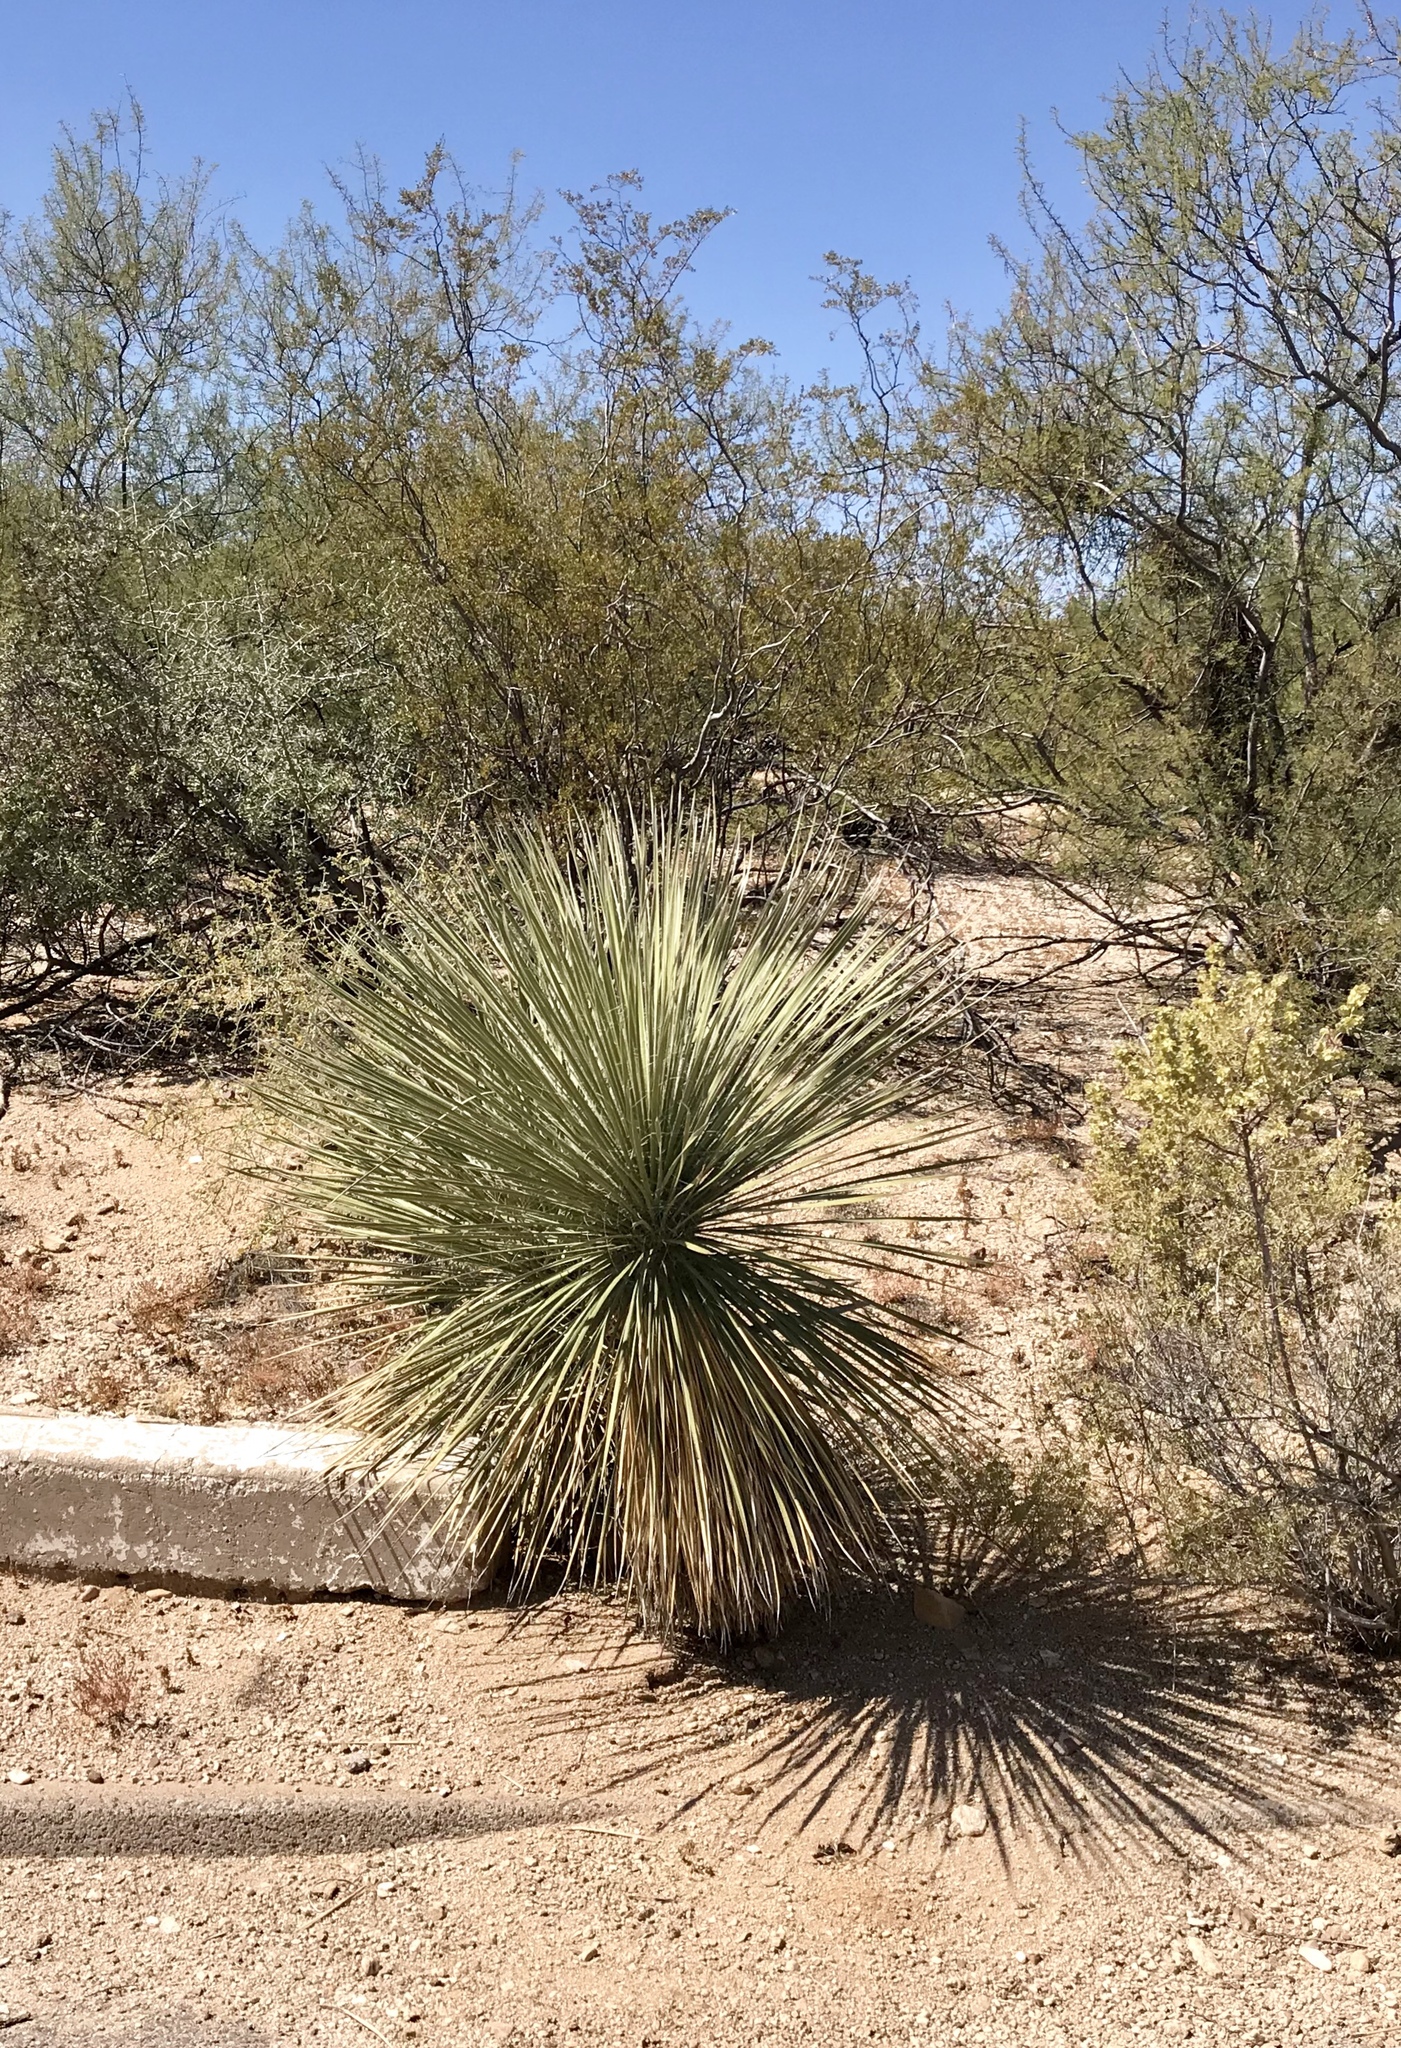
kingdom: Plantae
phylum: Tracheophyta
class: Liliopsida
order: Asparagales
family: Asparagaceae
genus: Yucca
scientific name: Yucca elata
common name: Palmella
